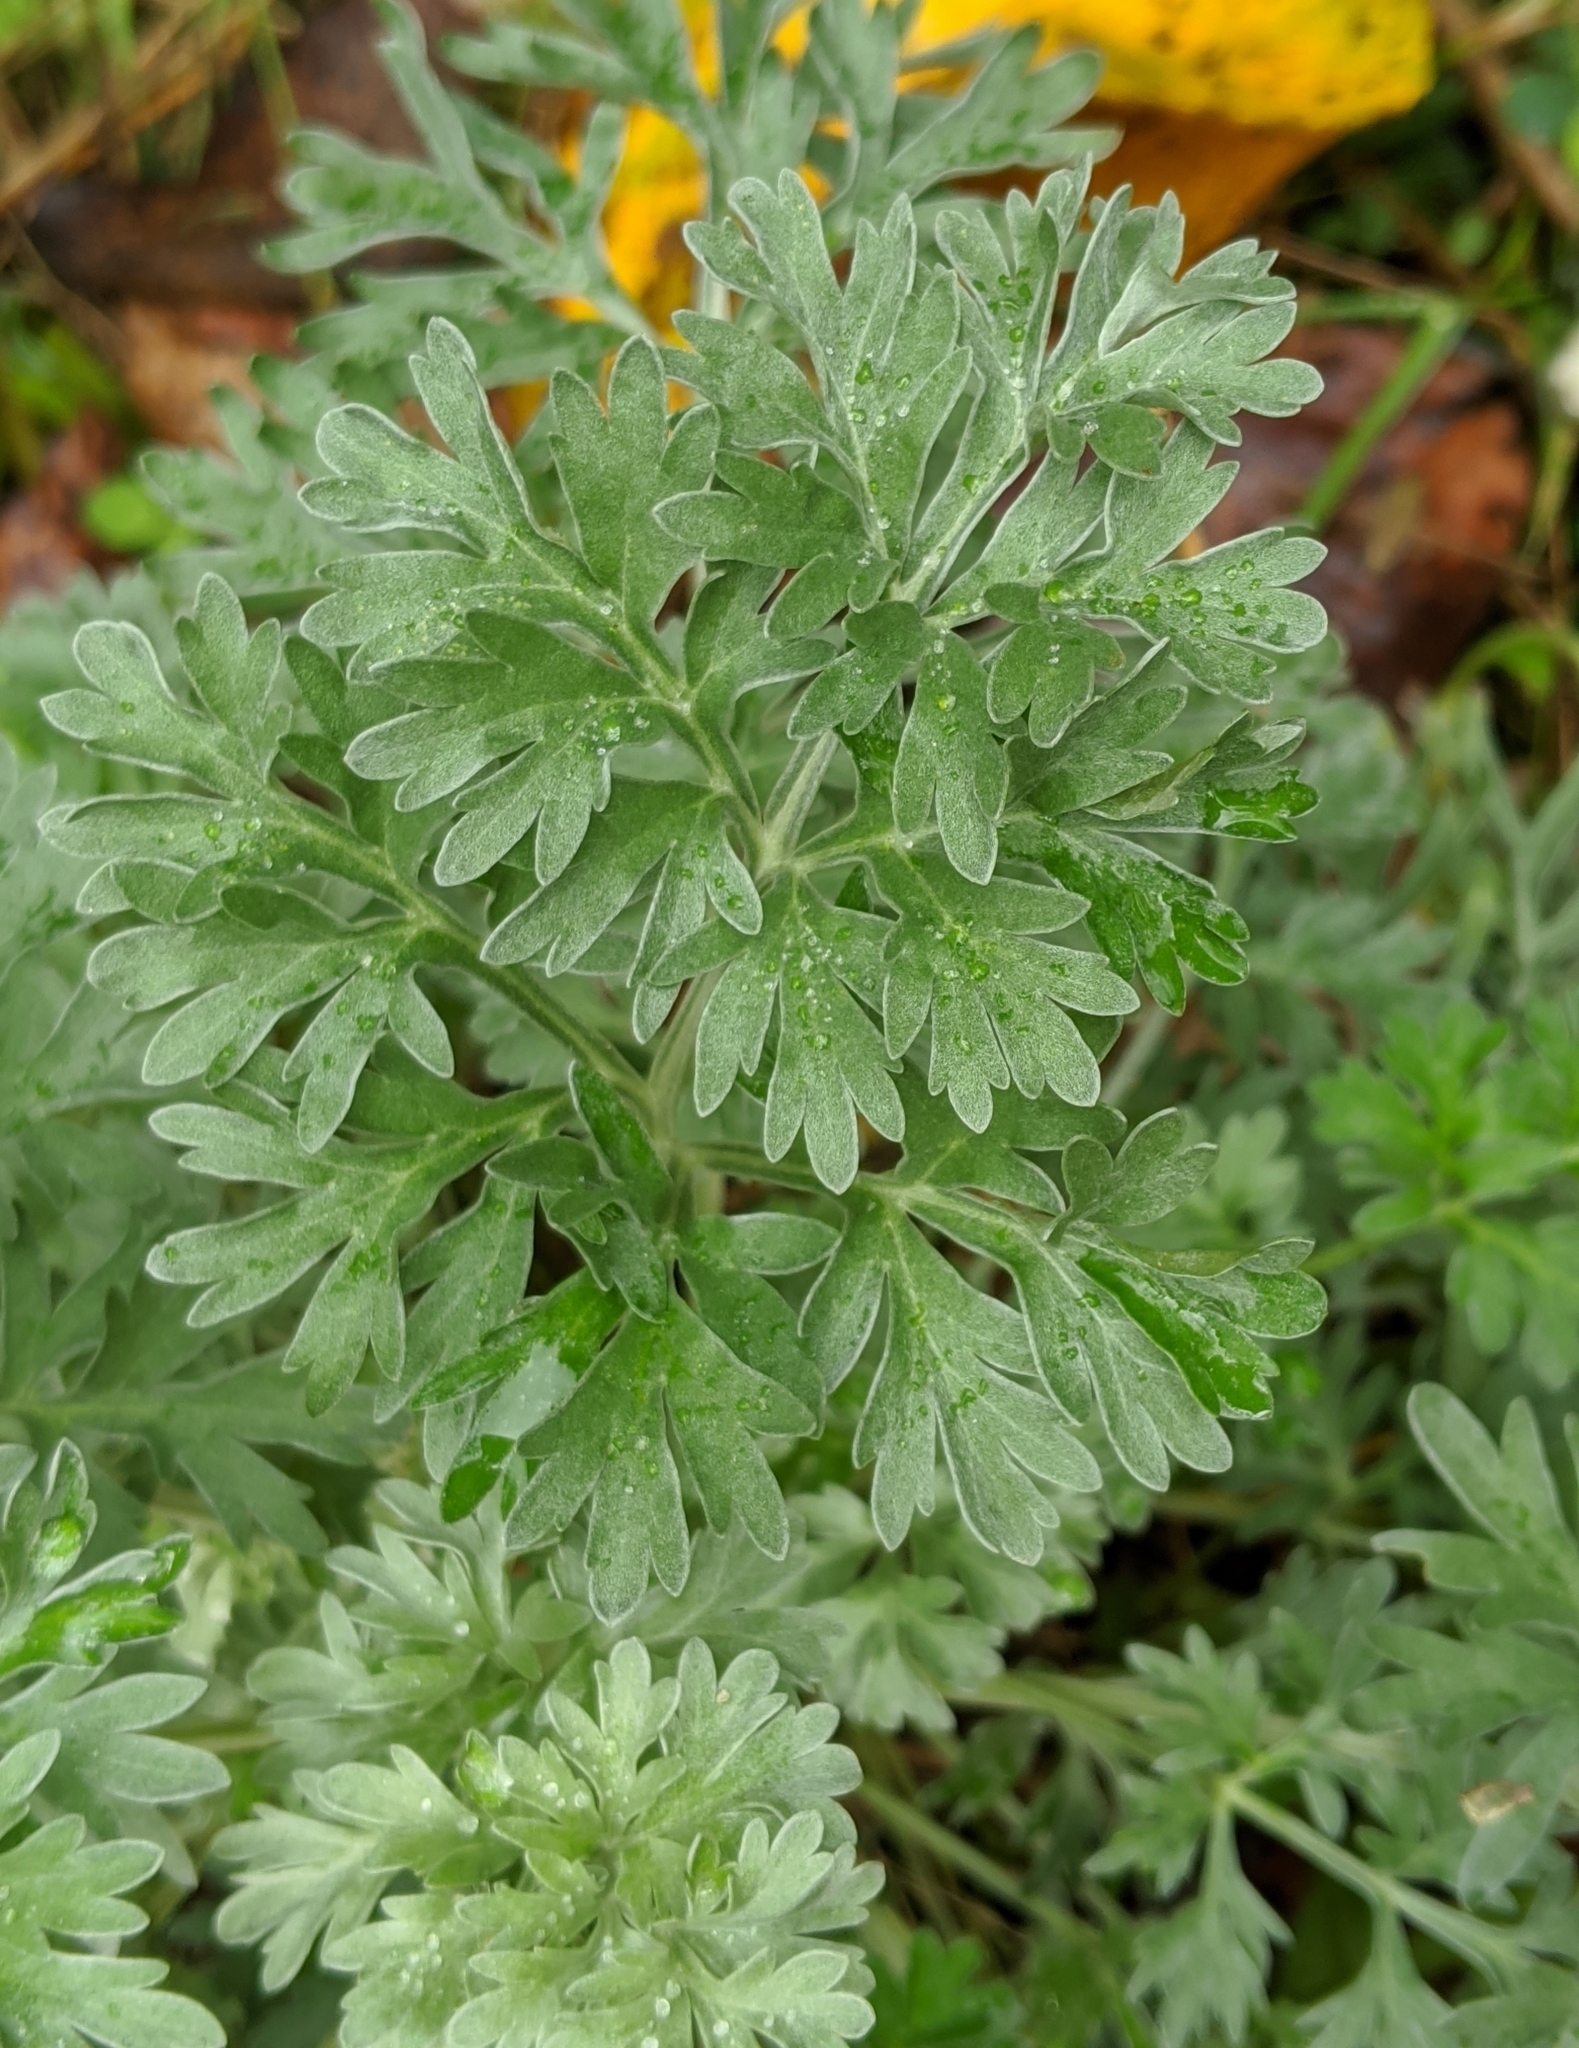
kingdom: Plantae
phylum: Tracheophyta
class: Magnoliopsida
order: Asterales
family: Asteraceae
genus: Artemisia
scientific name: Artemisia absinthium
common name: Wormwood
